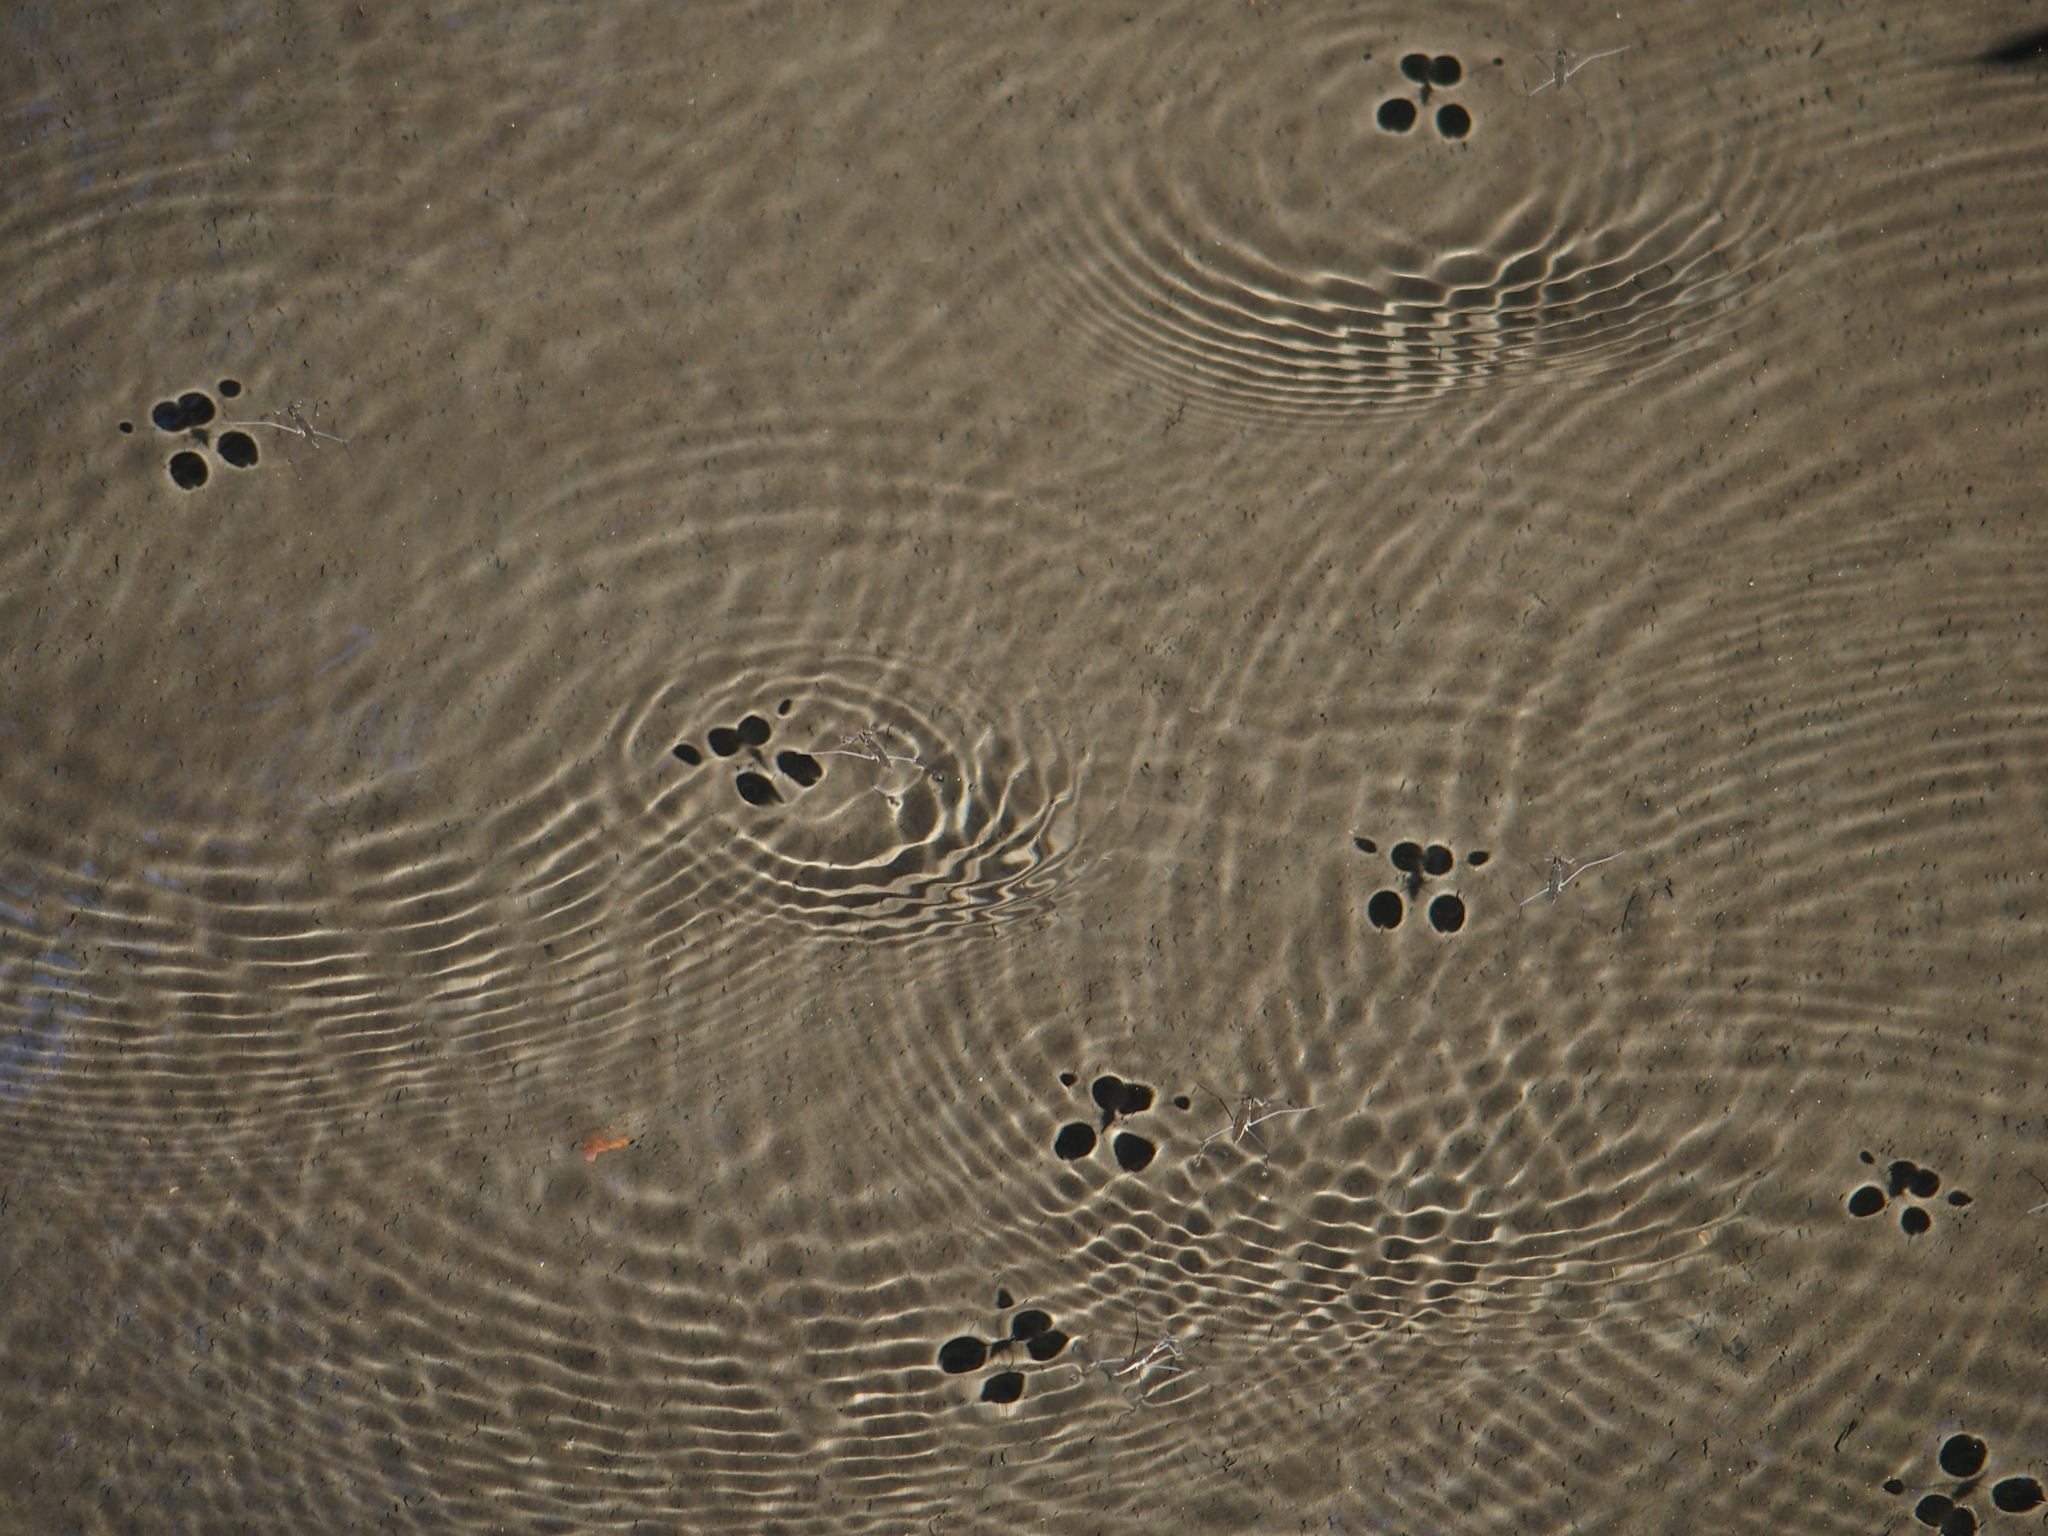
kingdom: Animalia
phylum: Arthropoda
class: Insecta
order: Hemiptera
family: Gerridae
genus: Aquarius
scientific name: Aquarius remigis
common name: Common water strider
